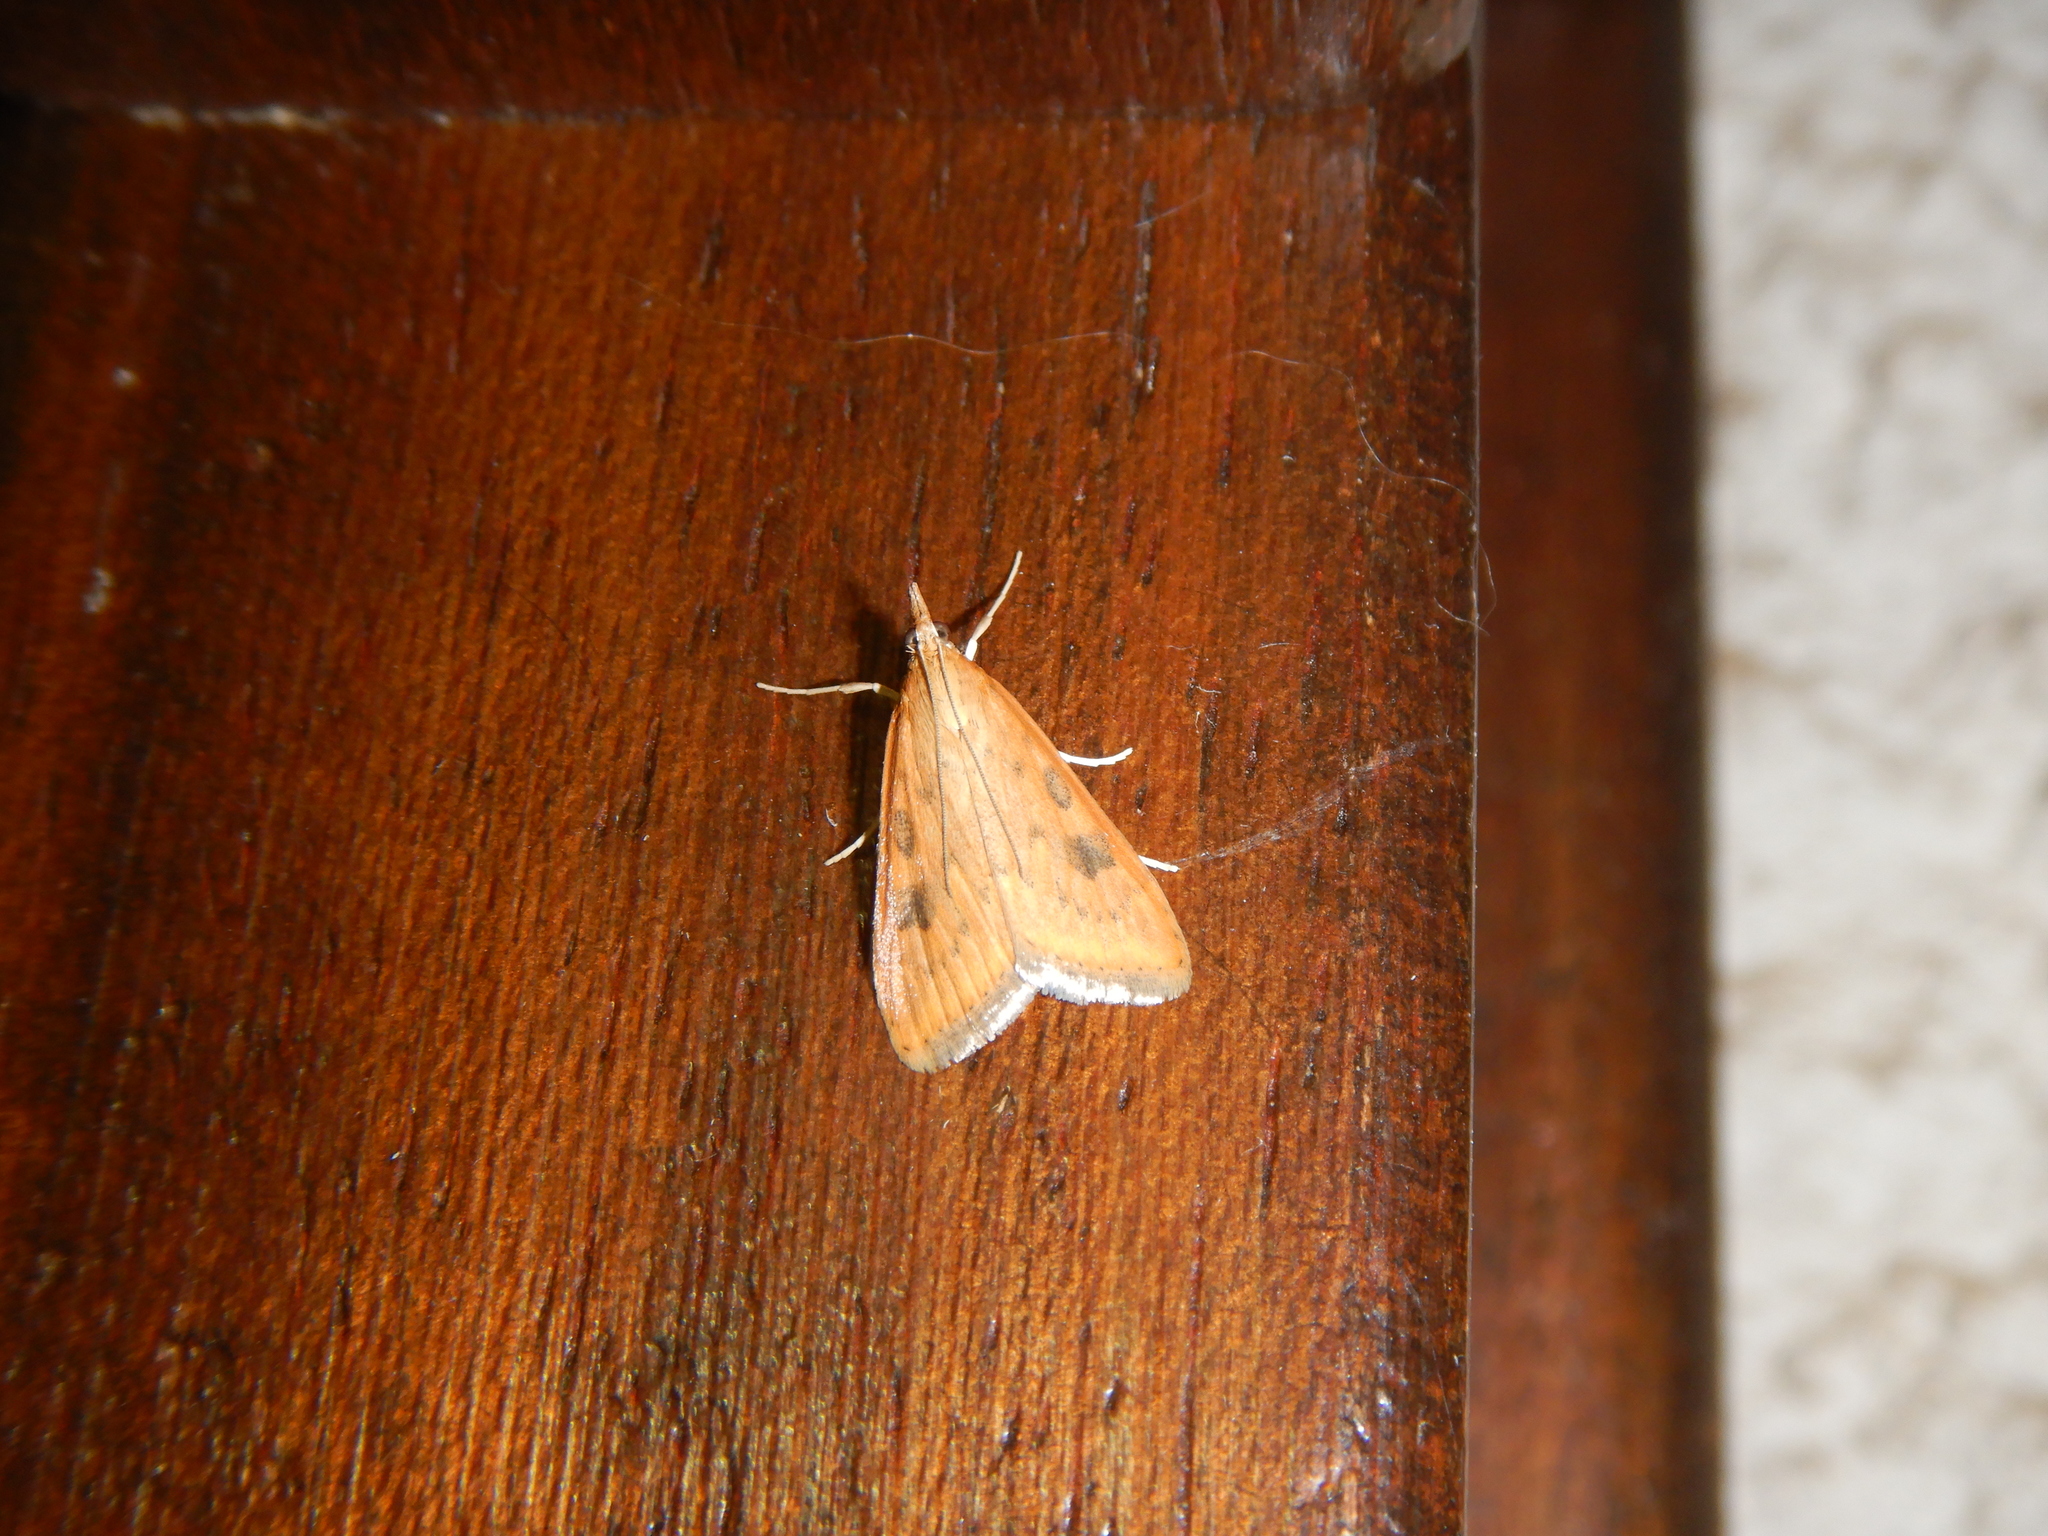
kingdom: Animalia
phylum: Arthropoda
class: Insecta
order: Lepidoptera
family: Crambidae
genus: Udea
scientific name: Udea ferrugalis
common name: Rusty dot
